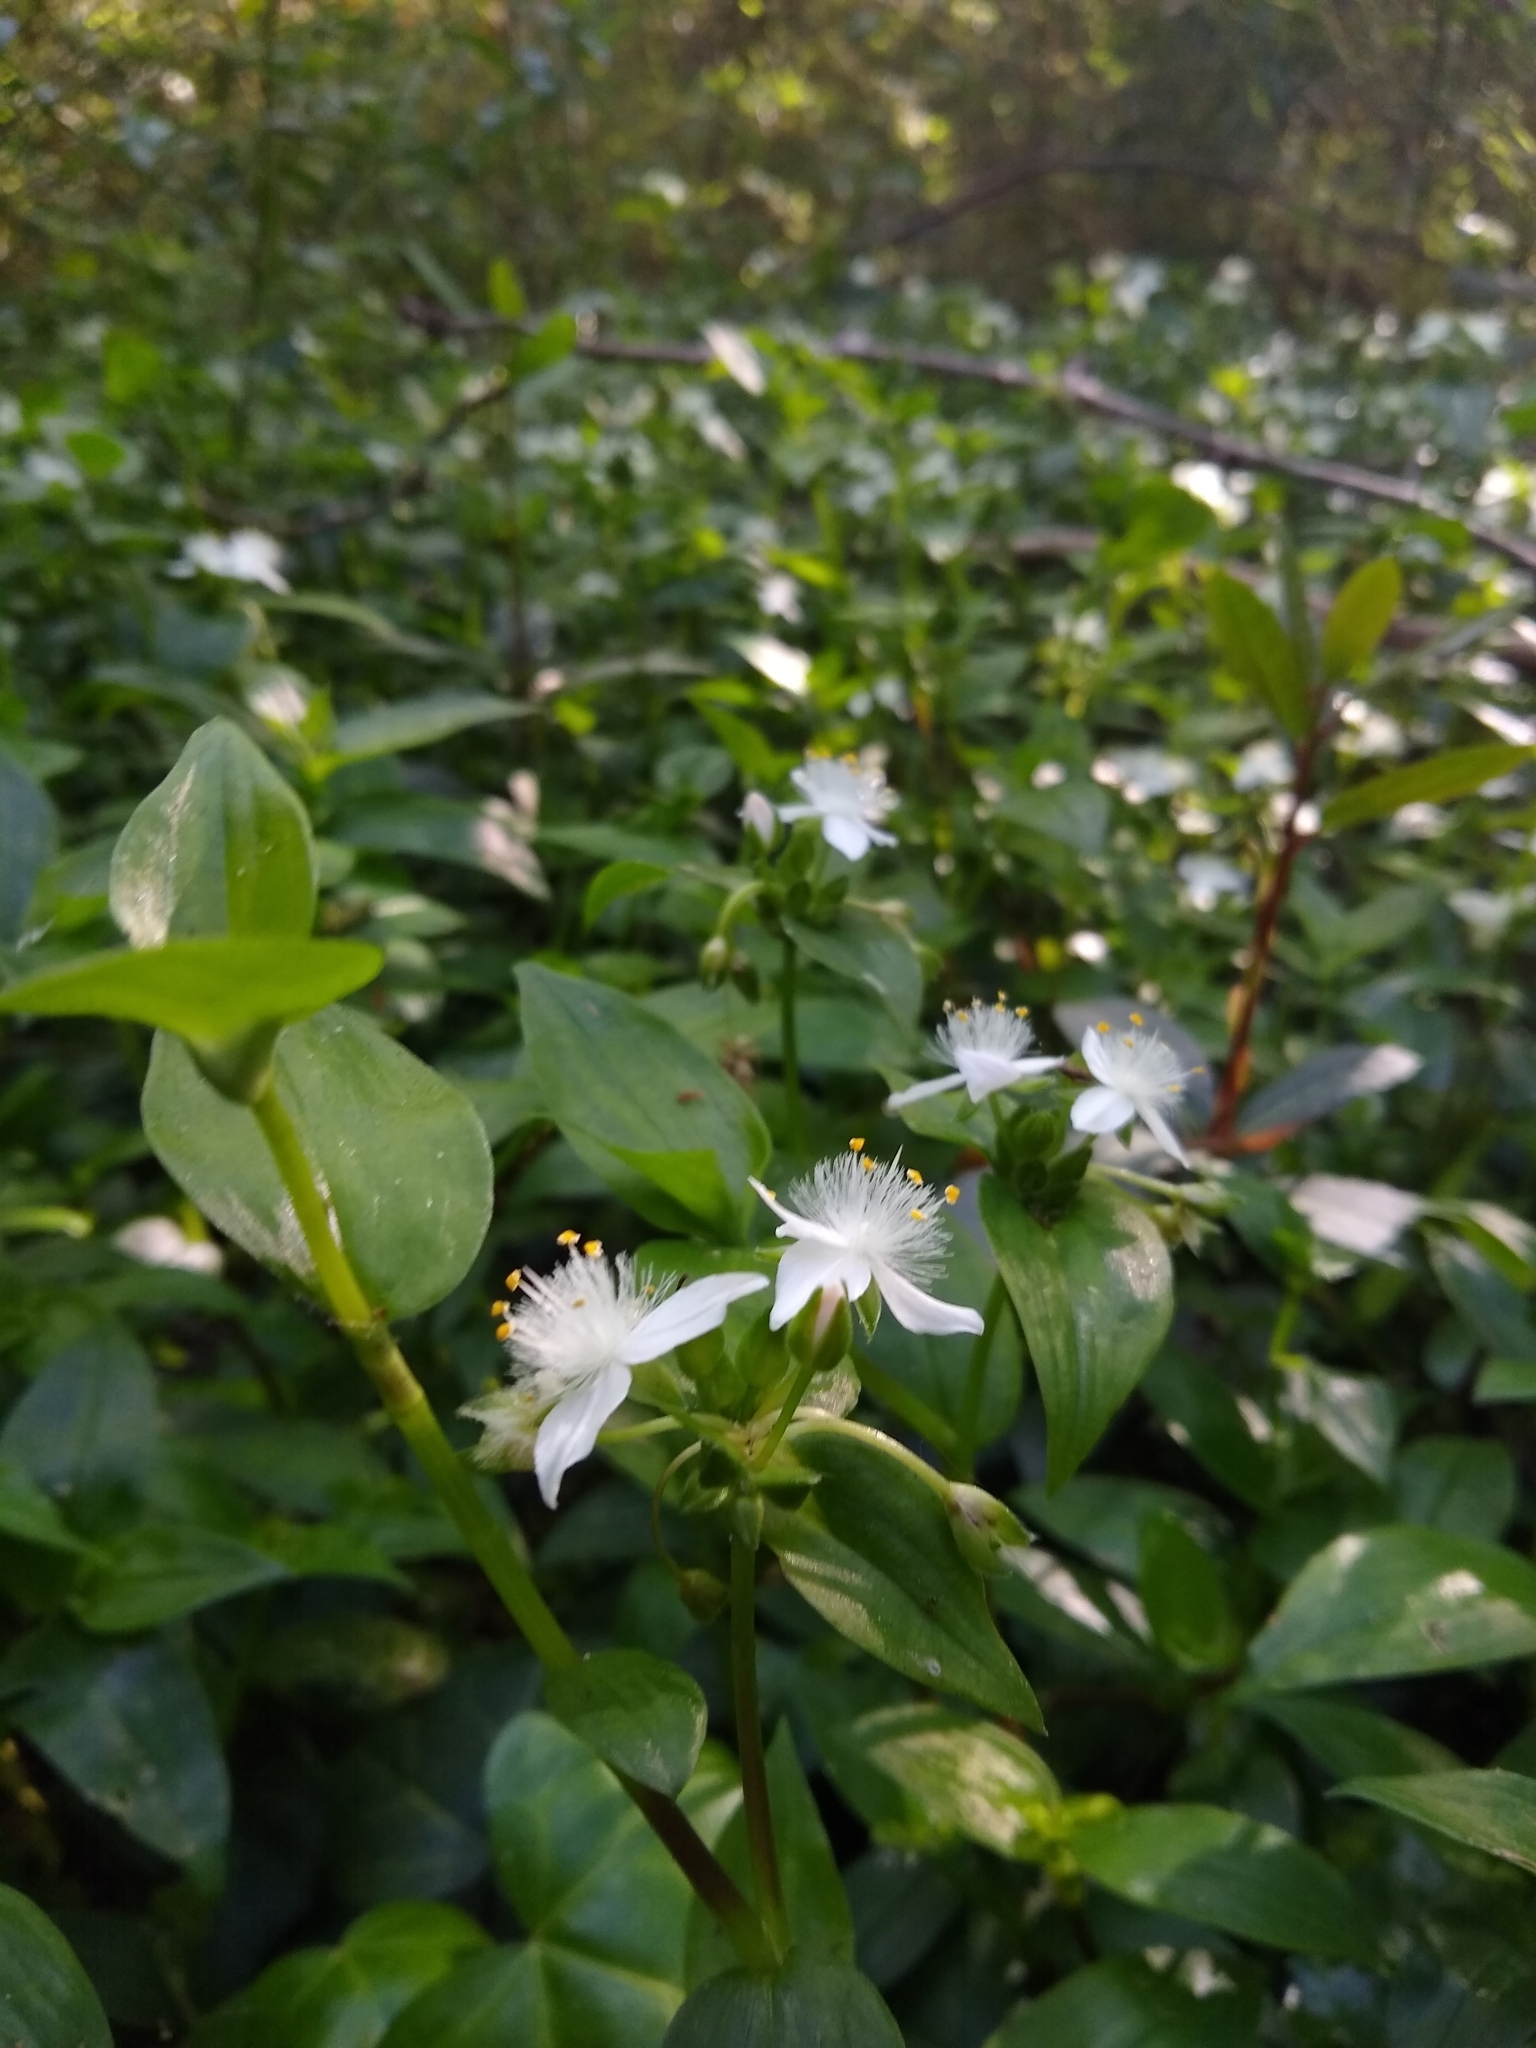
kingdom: Plantae
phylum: Tracheophyta
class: Liliopsida
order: Commelinales
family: Commelinaceae
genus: Tradescantia
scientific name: Tradescantia fluminensis
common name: Wandering-jew
